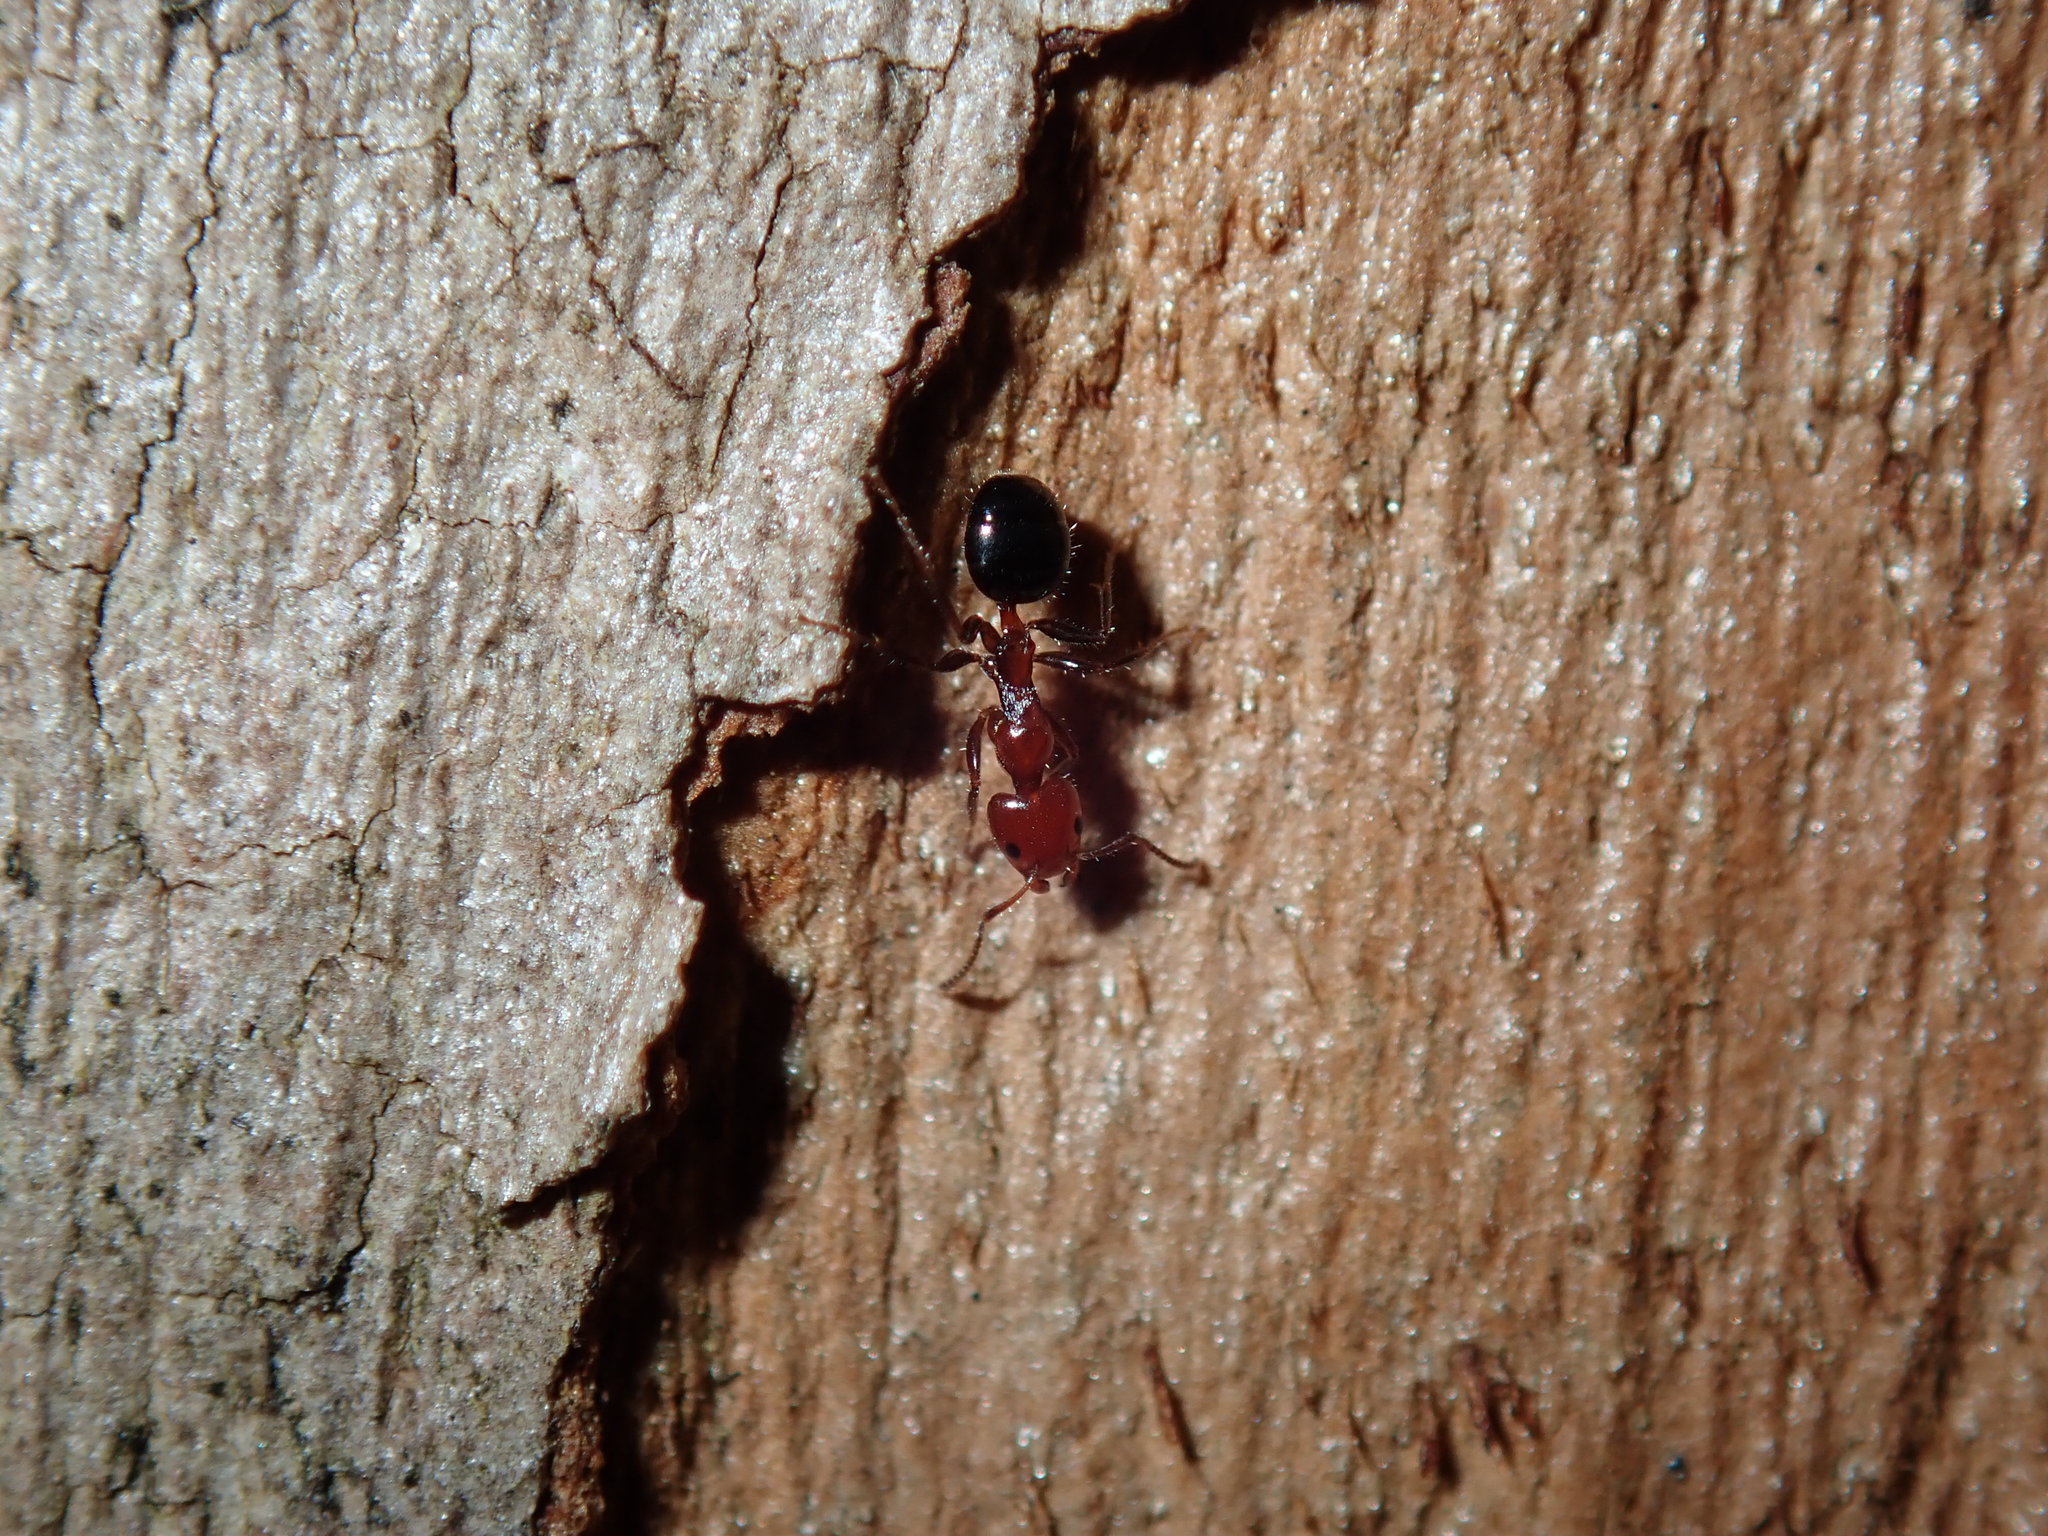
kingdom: Animalia
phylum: Arthropoda
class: Insecta
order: Hymenoptera
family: Formicidae
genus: Froggattella
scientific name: Froggattella kirbii
